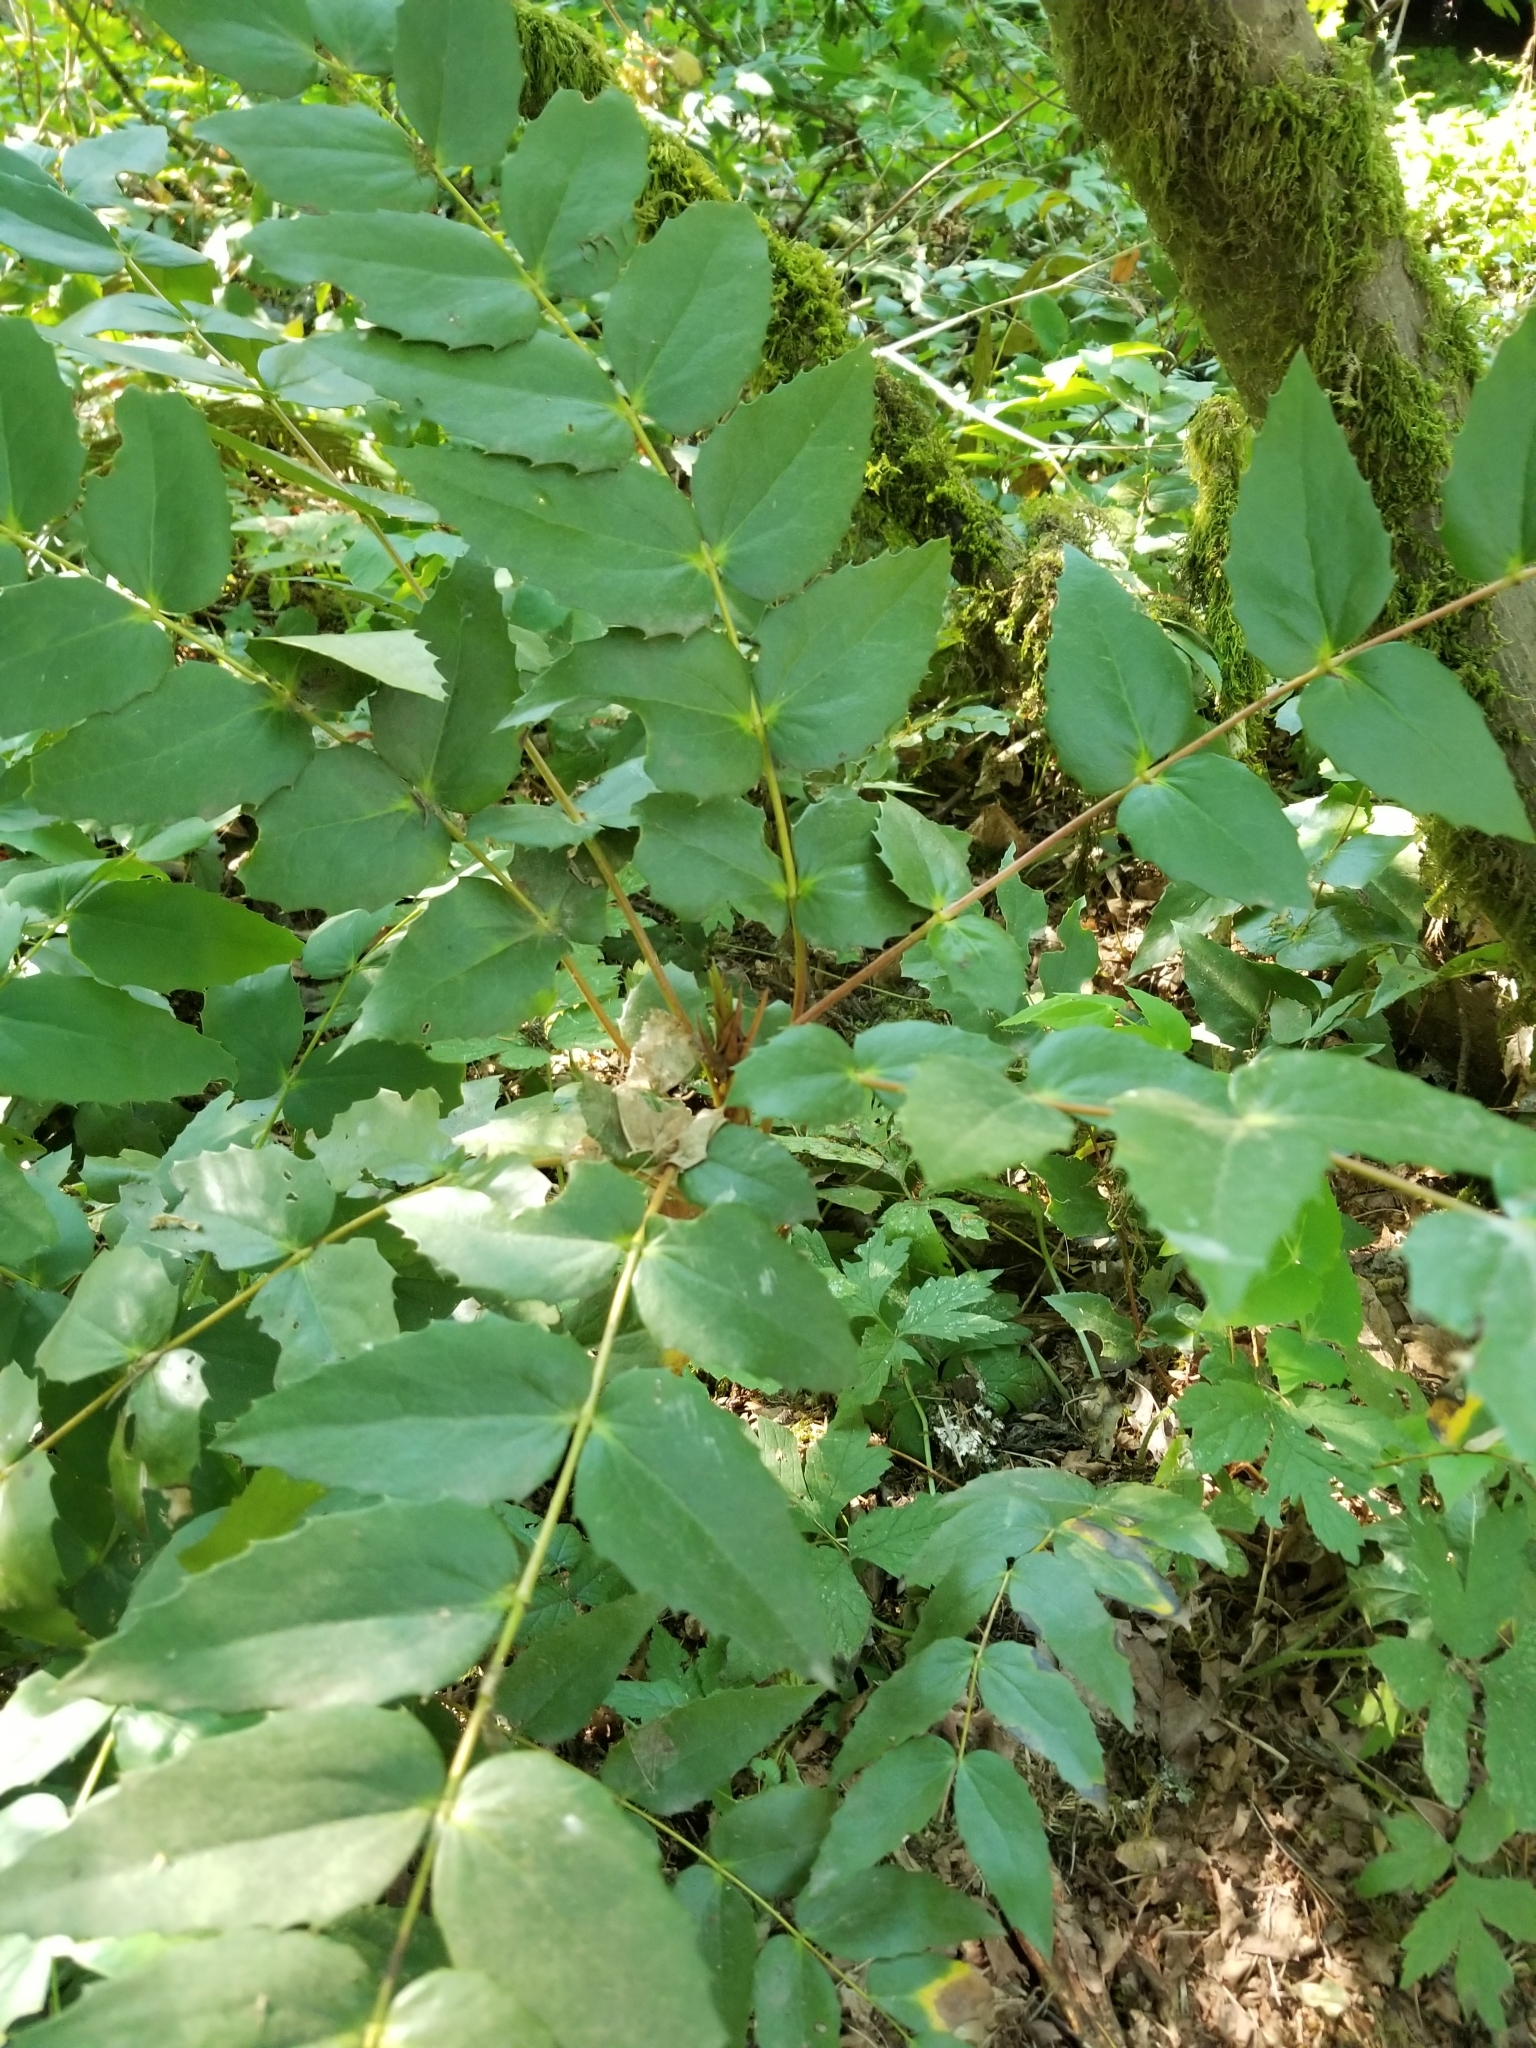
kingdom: Plantae
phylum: Tracheophyta
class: Magnoliopsida
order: Ranunculales
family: Berberidaceae
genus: Mahonia
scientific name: Mahonia nervosa
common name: Cascade oregon-grape
